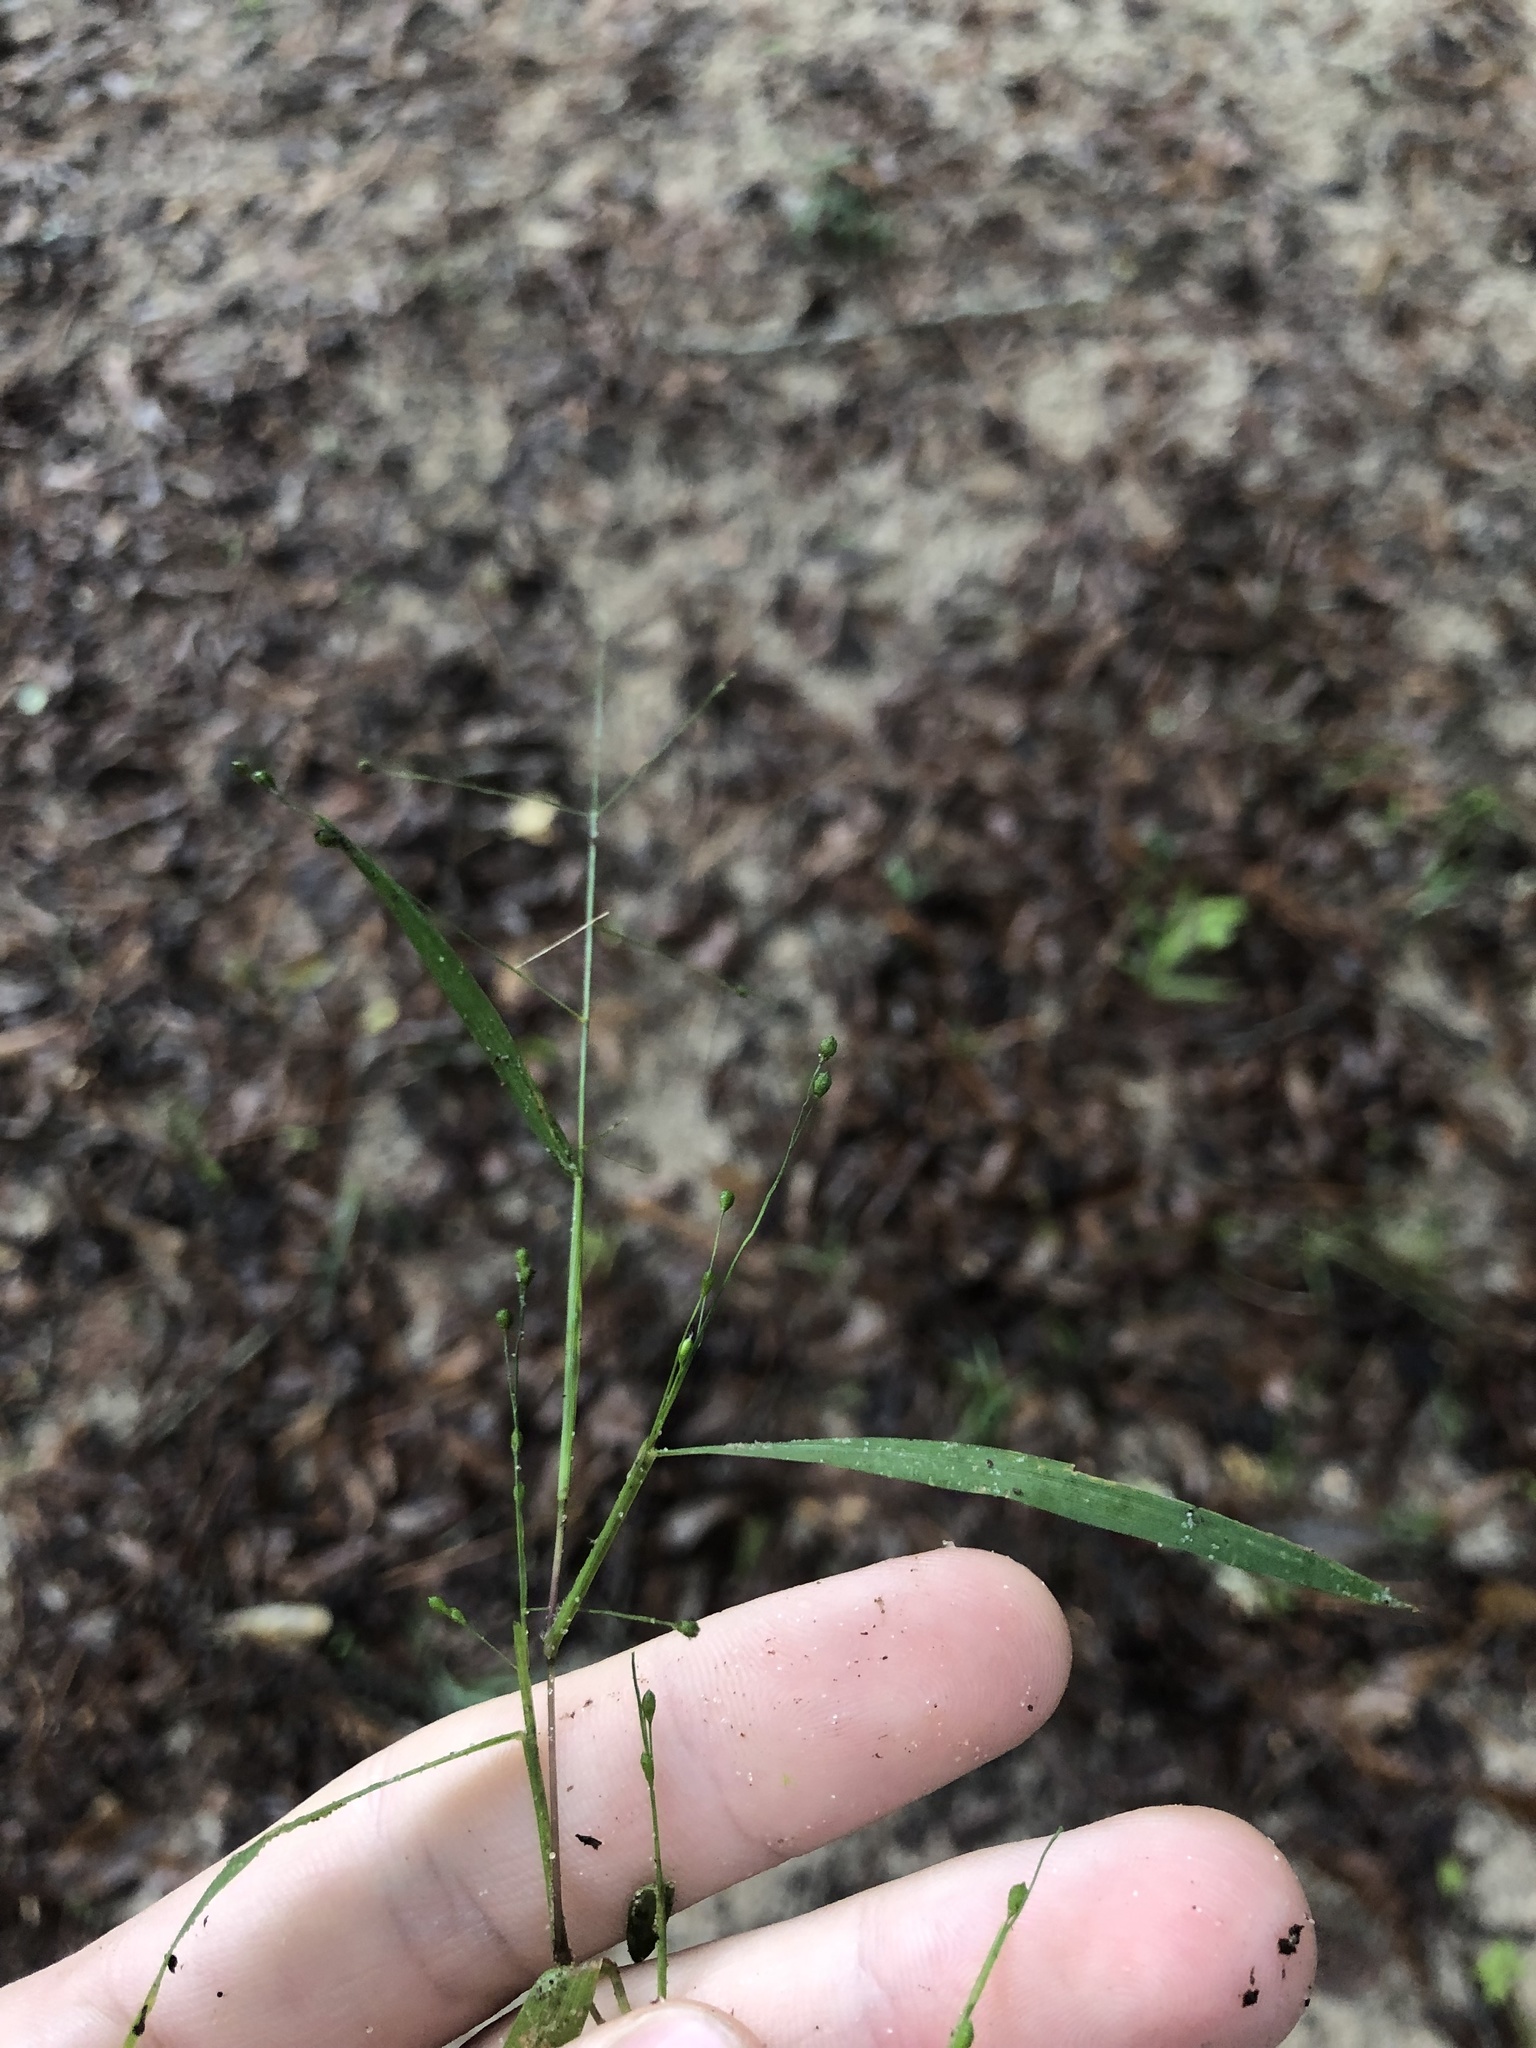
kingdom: Plantae
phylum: Tracheophyta
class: Liliopsida
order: Poales
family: Poaceae
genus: Kellochloa
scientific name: Kellochloa verrucosa
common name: Warty panic grass
